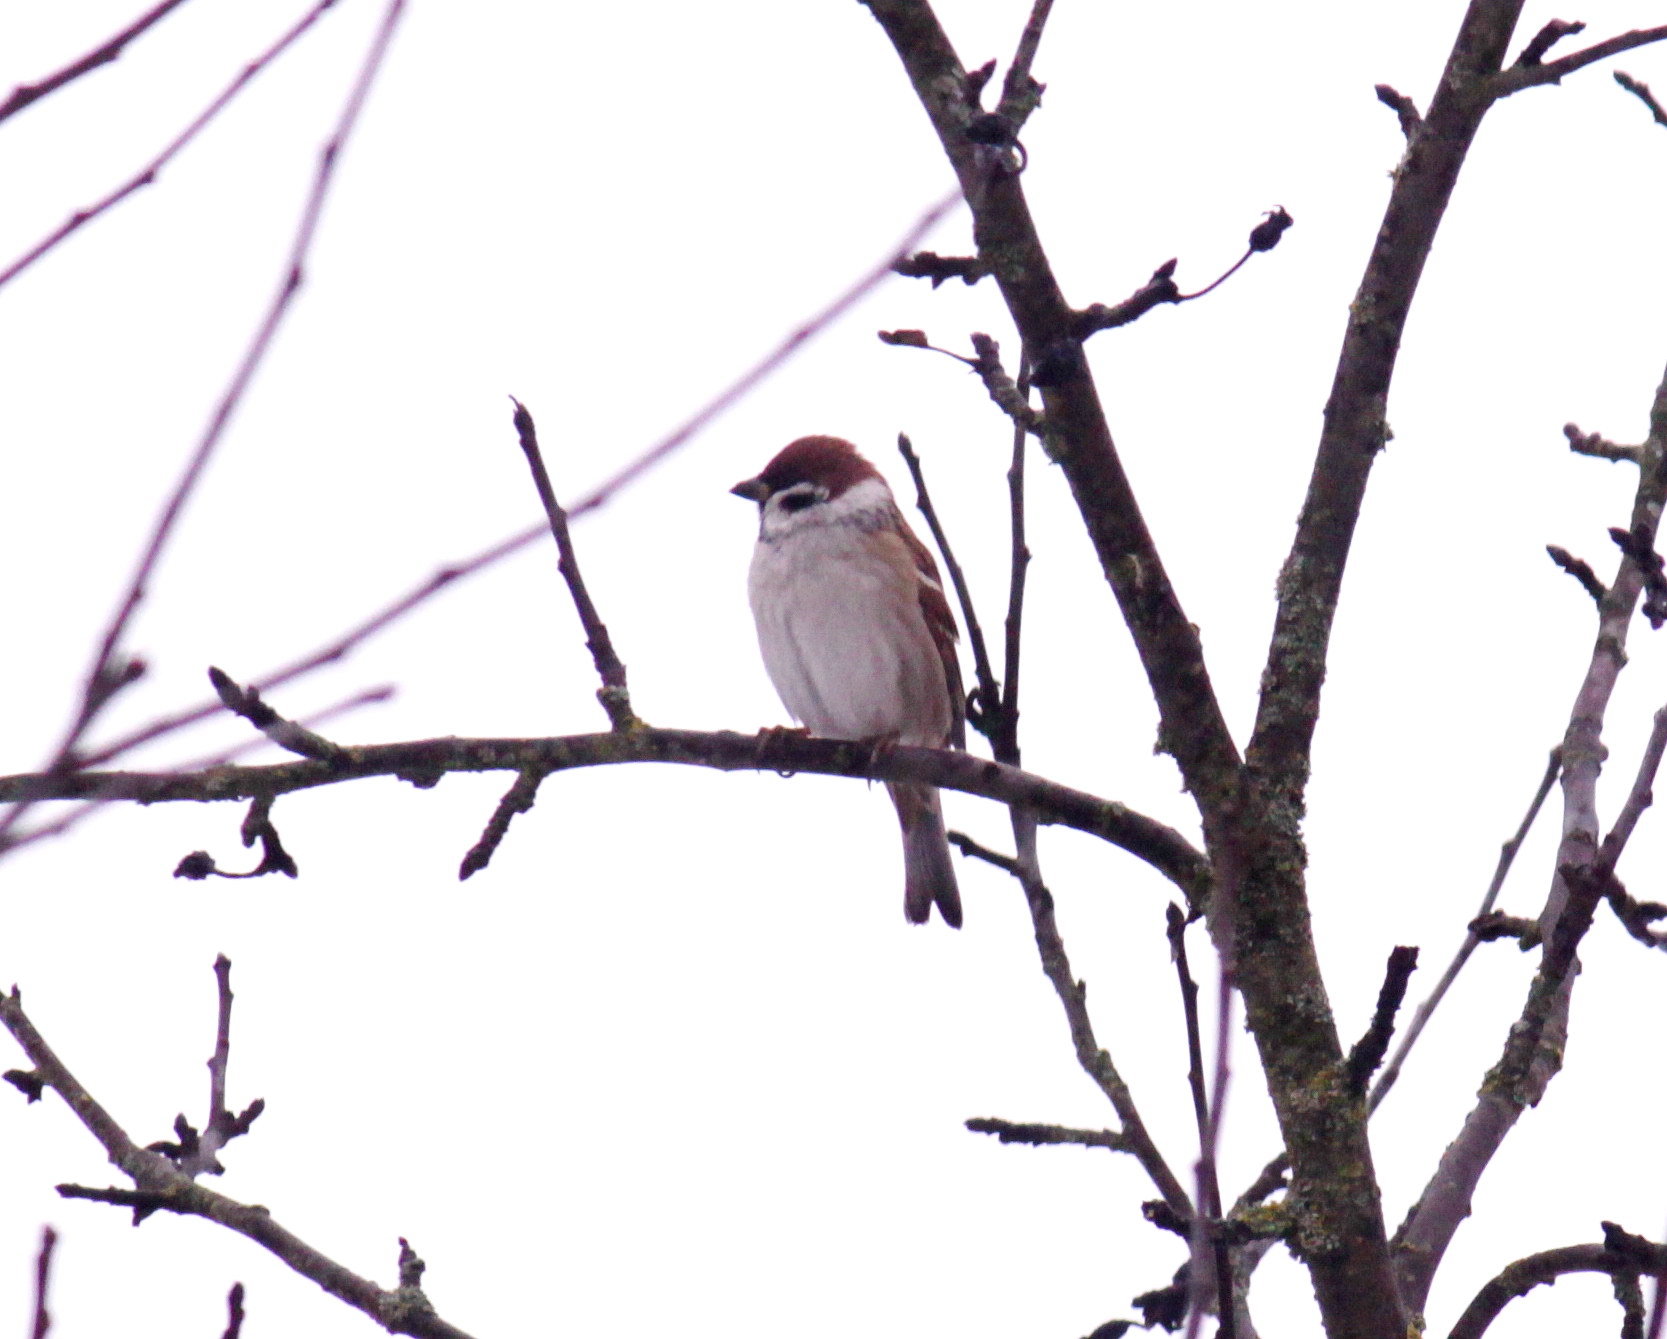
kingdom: Animalia
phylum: Chordata
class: Aves
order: Passeriformes
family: Passeridae
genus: Passer
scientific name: Passer montanus
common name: Eurasian tree sparrow
